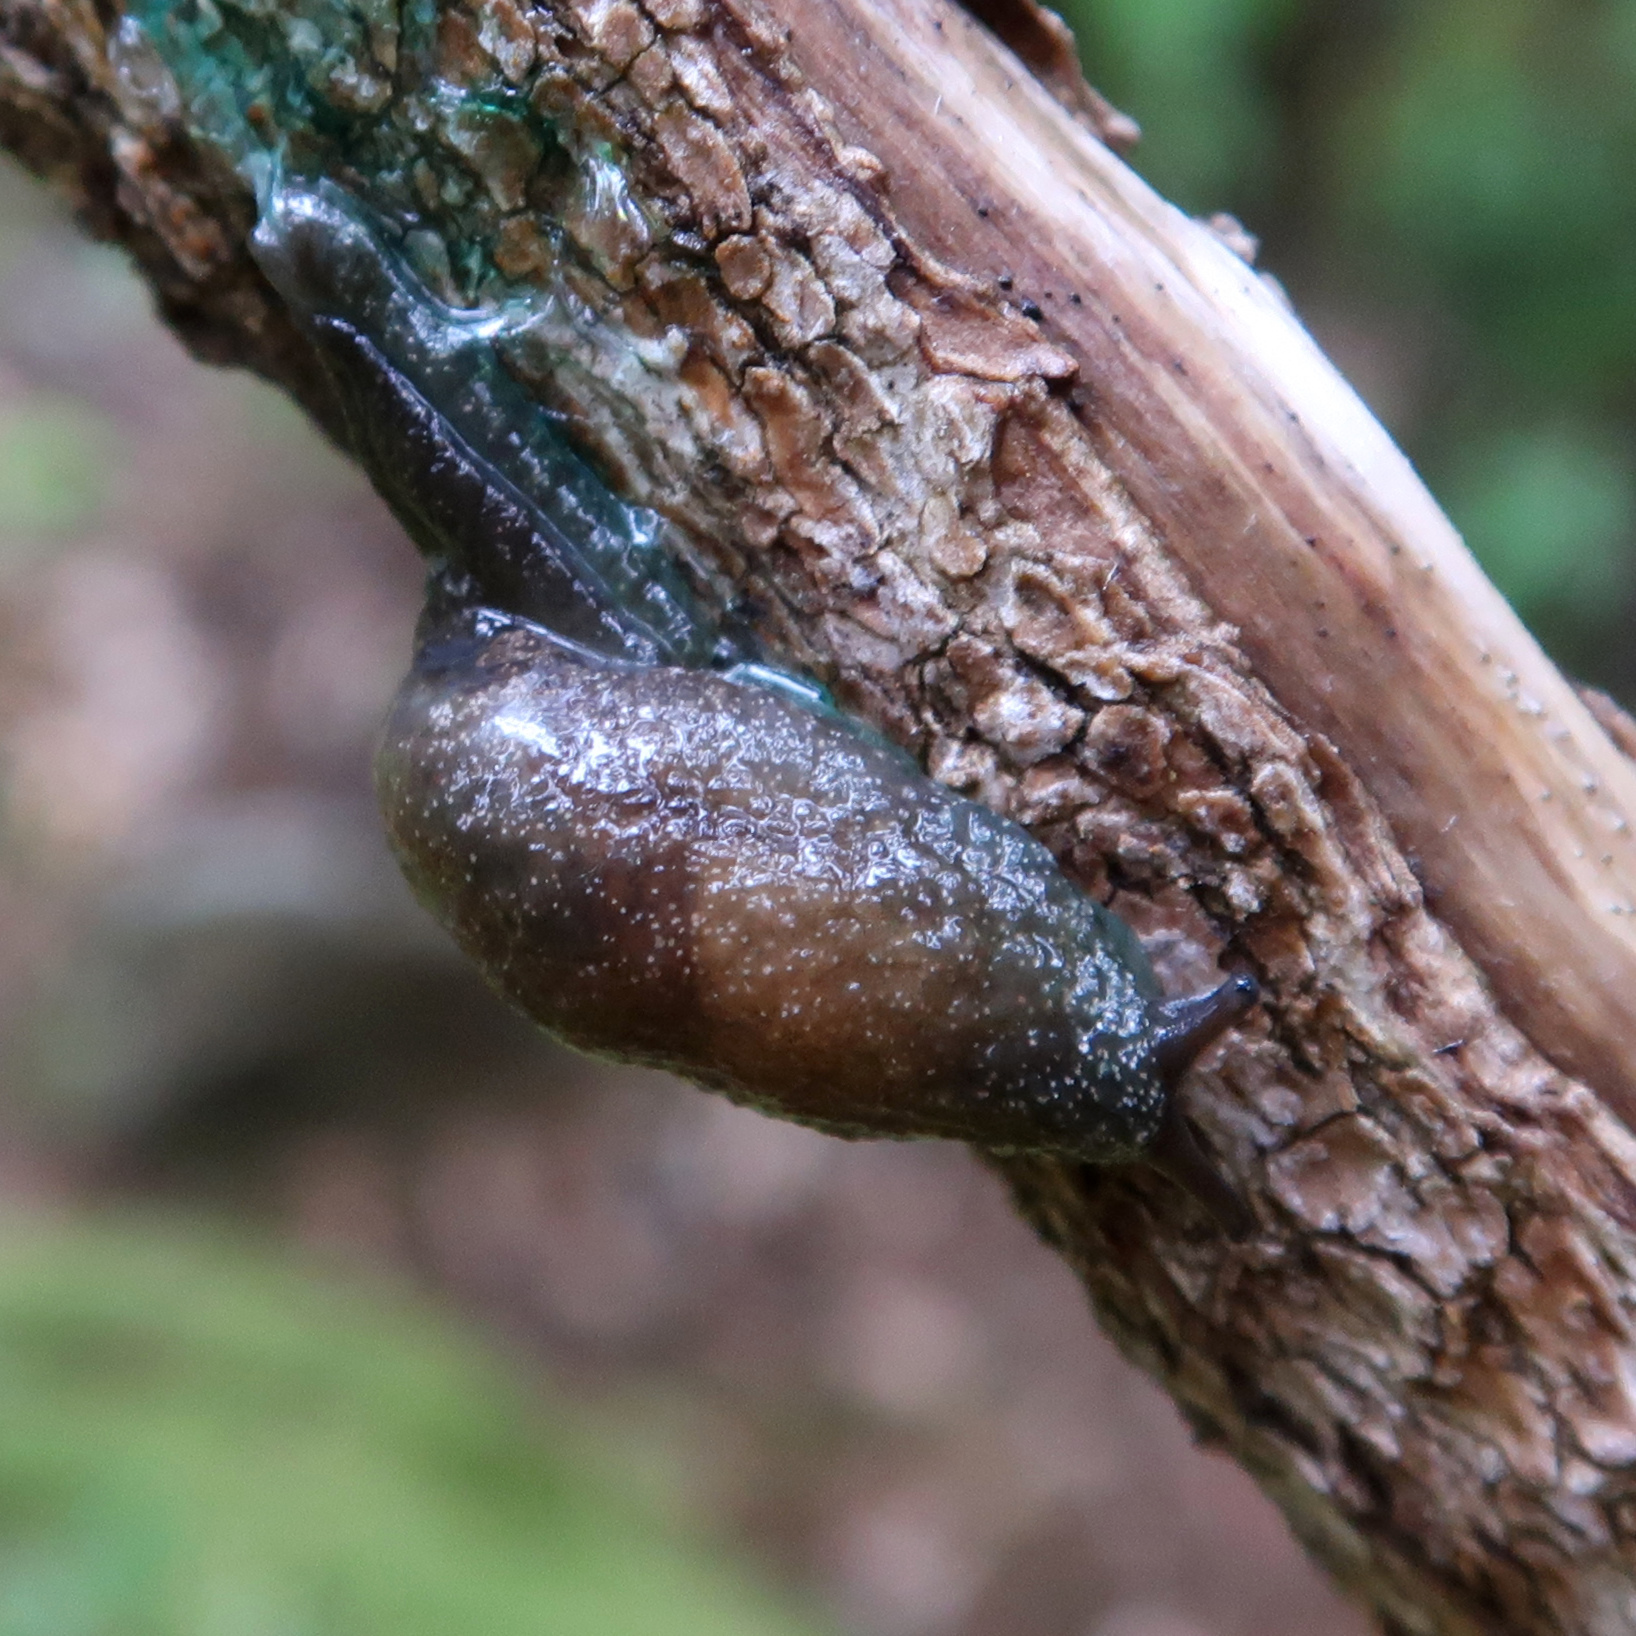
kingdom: Animalia
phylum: Mollusca
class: Gastropoda
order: Stylommatophora
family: Cystopeltidae
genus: Cystopelta
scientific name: Cystopelta bicolor
